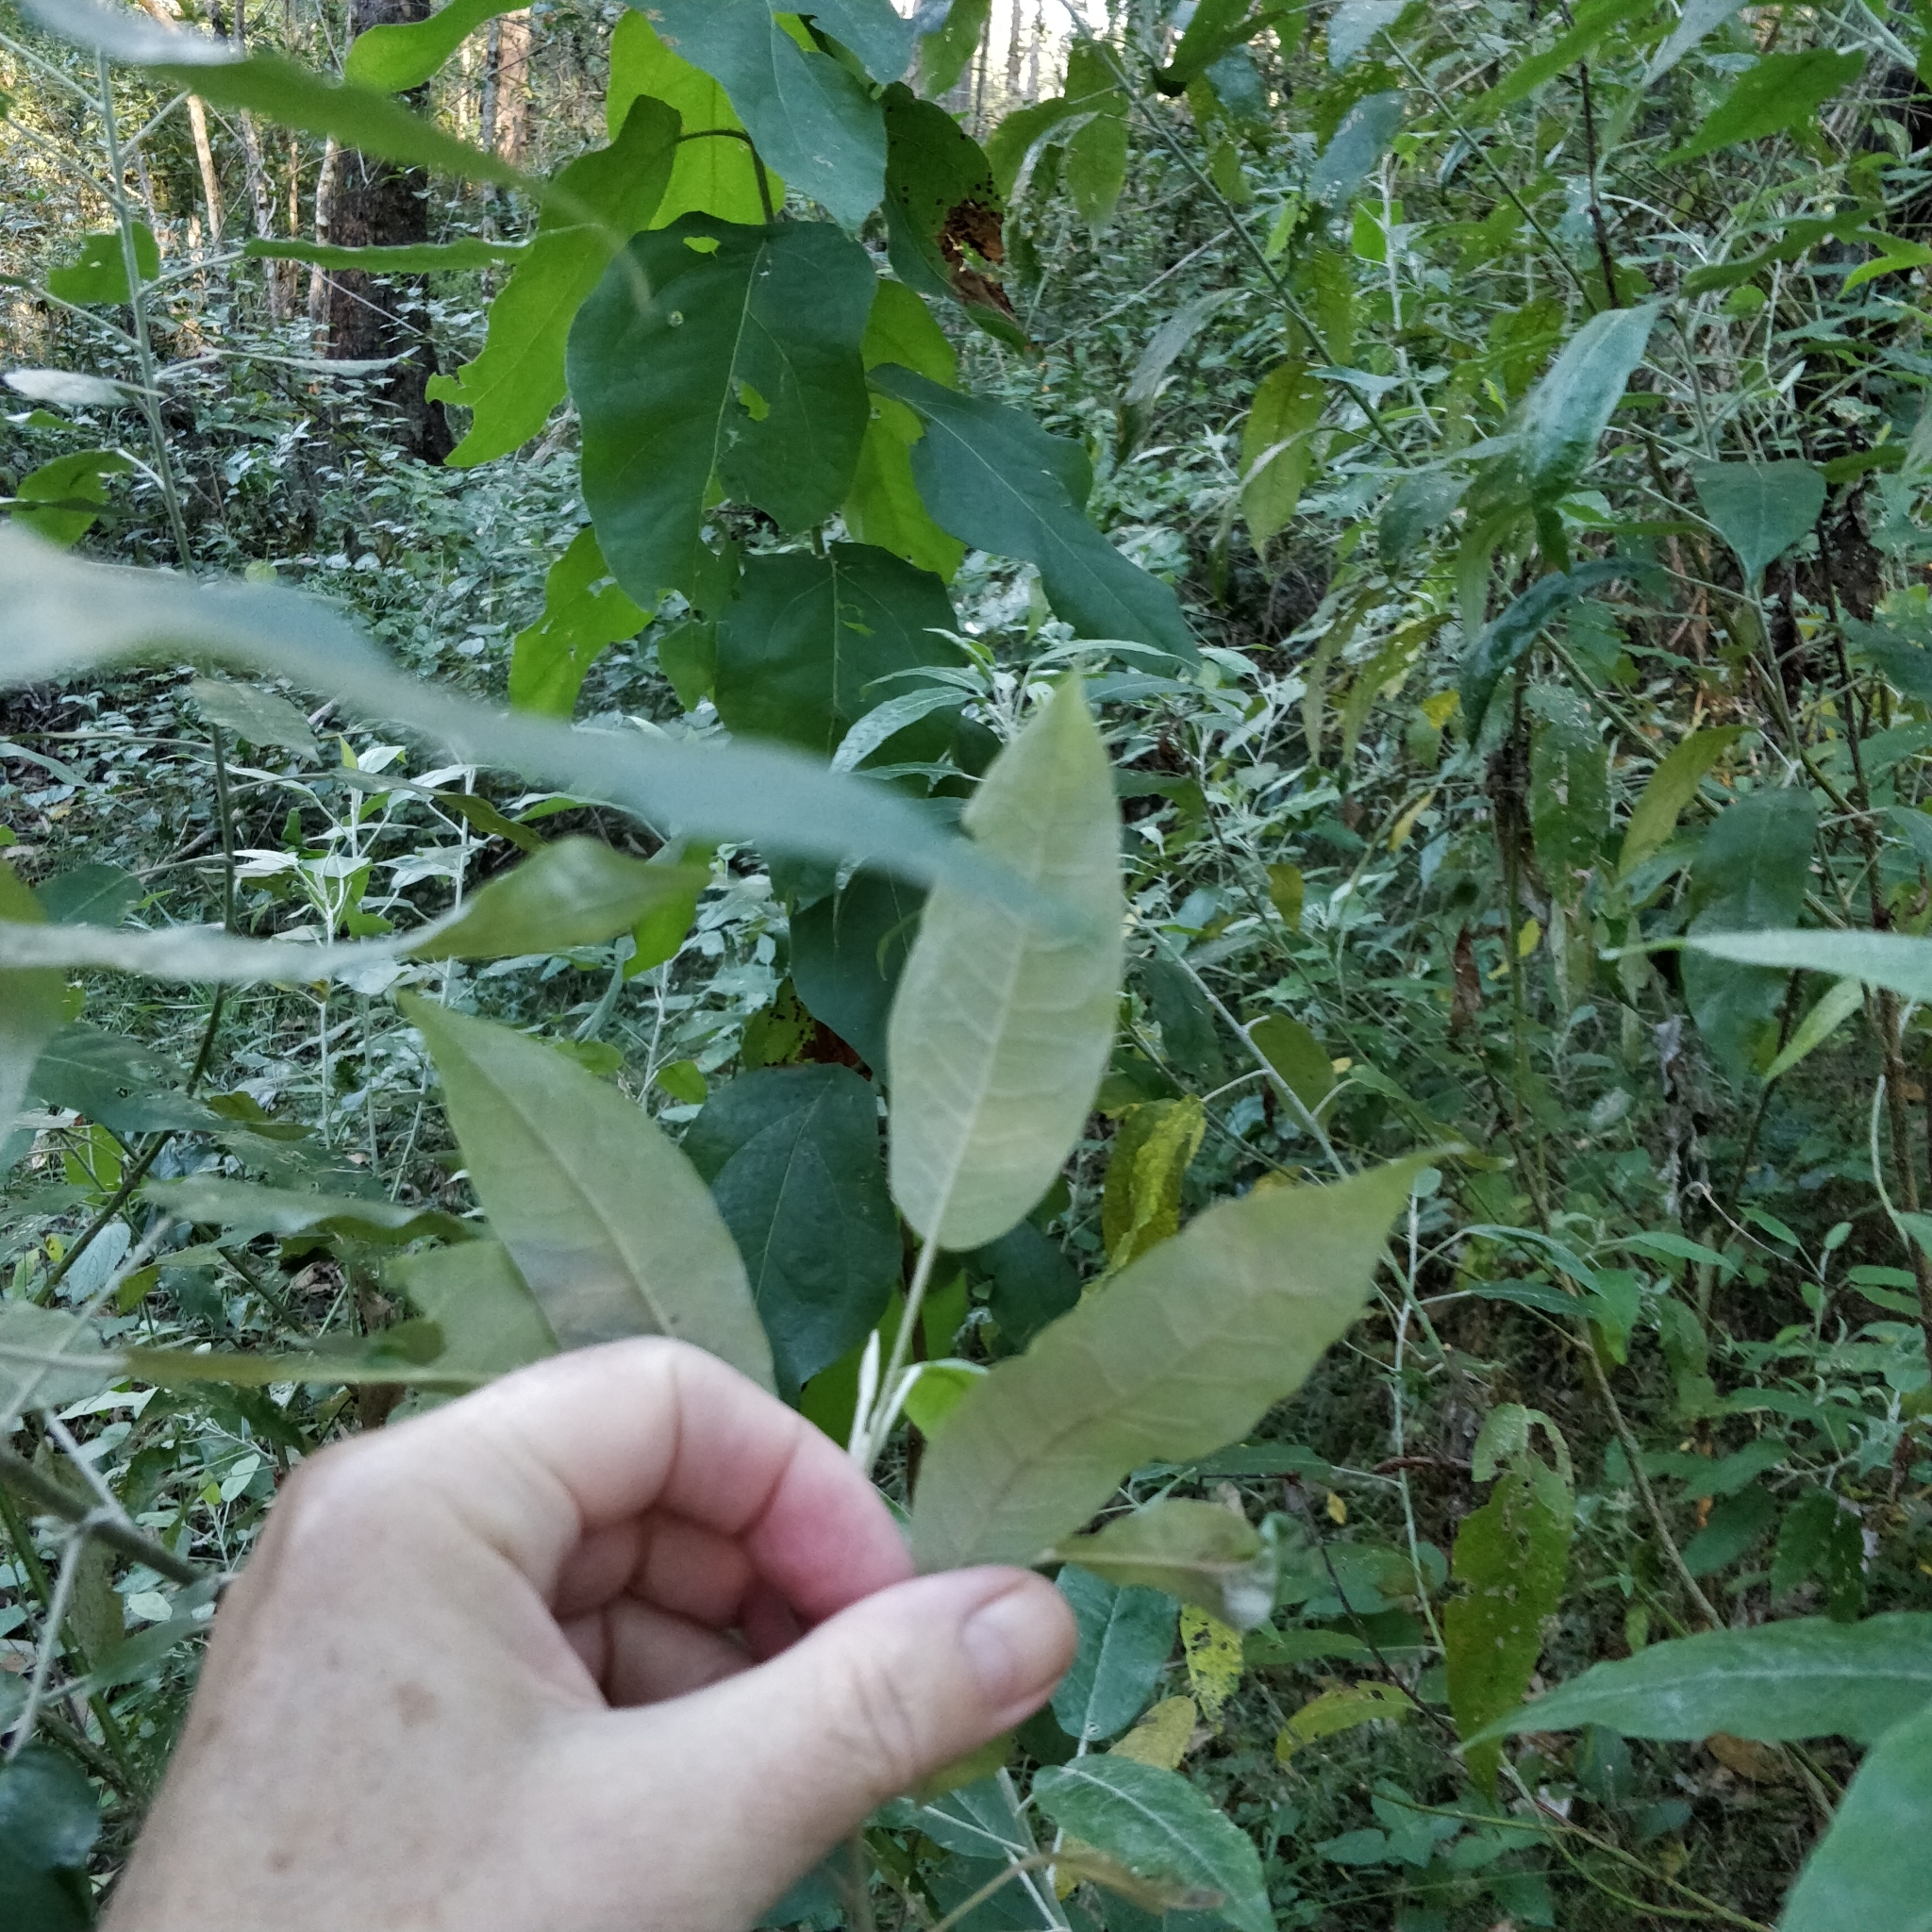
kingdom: Plantae
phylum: Tracheophyta
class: Magnoliopsida
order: Apiales
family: Araliaceae
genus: Astrotricha
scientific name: Astrotricha latifolia
